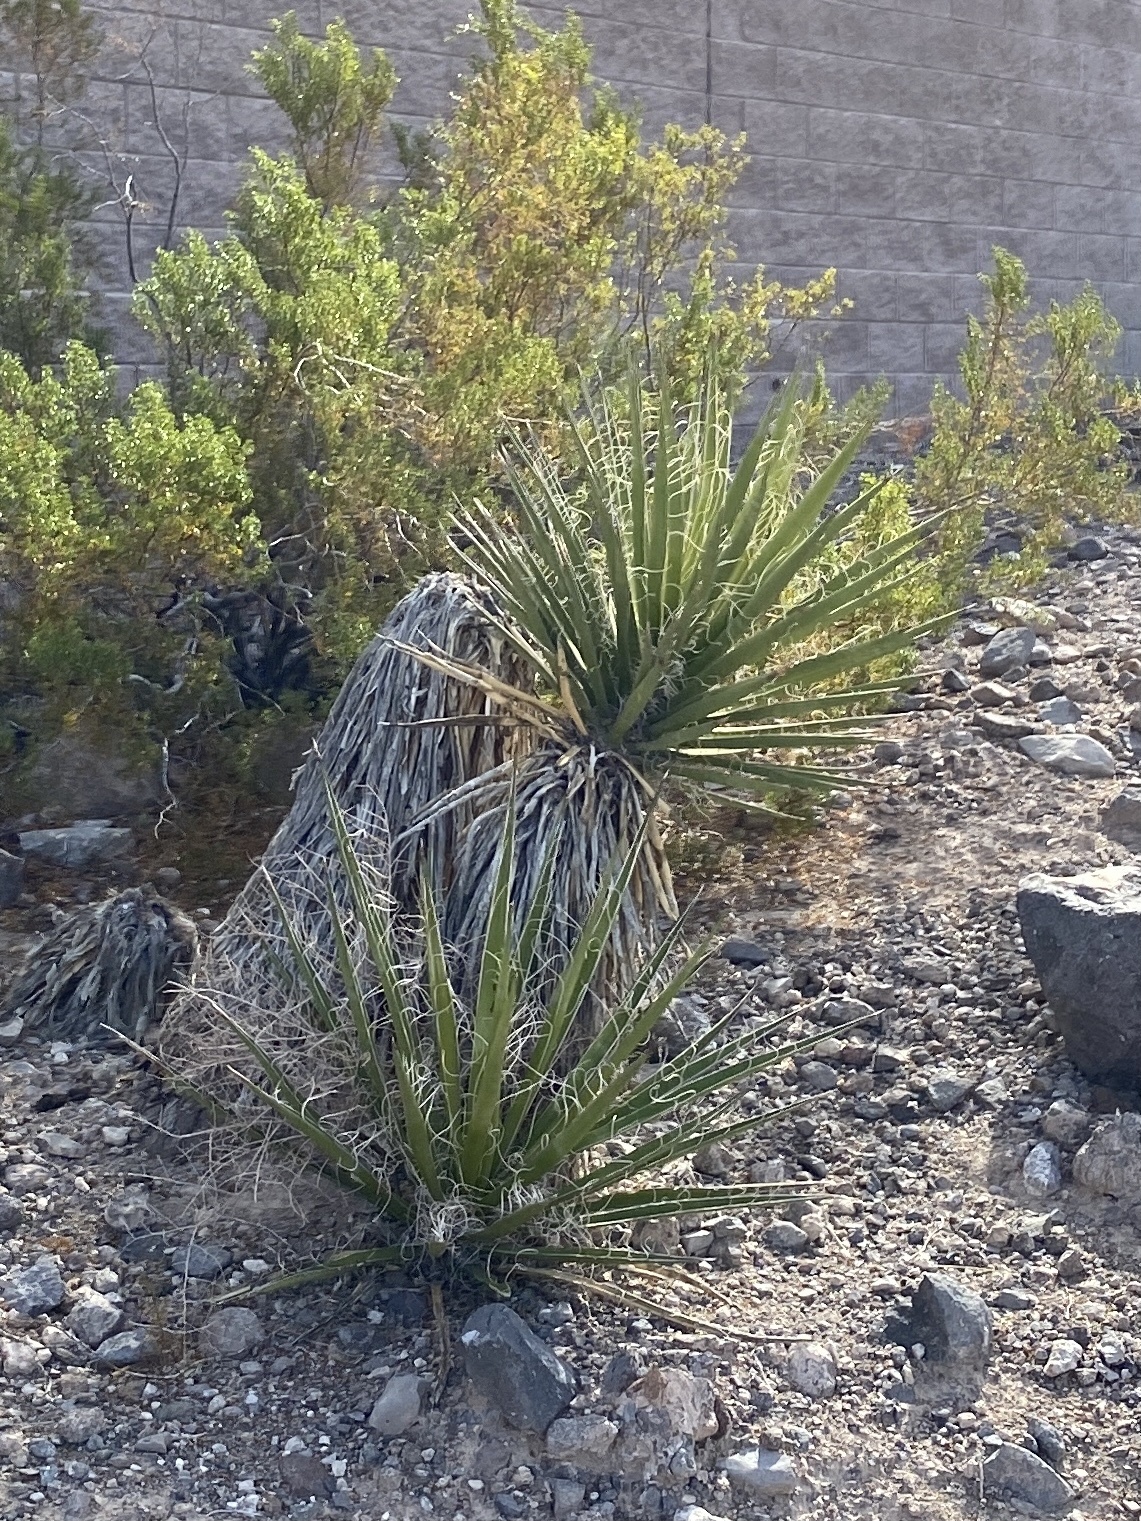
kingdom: Plantae
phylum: Tracheophyta
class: Liliopsida
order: Asparagales
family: Asparagaceae
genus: Yucca
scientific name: Yucca schidigera
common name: Mojave yucca
